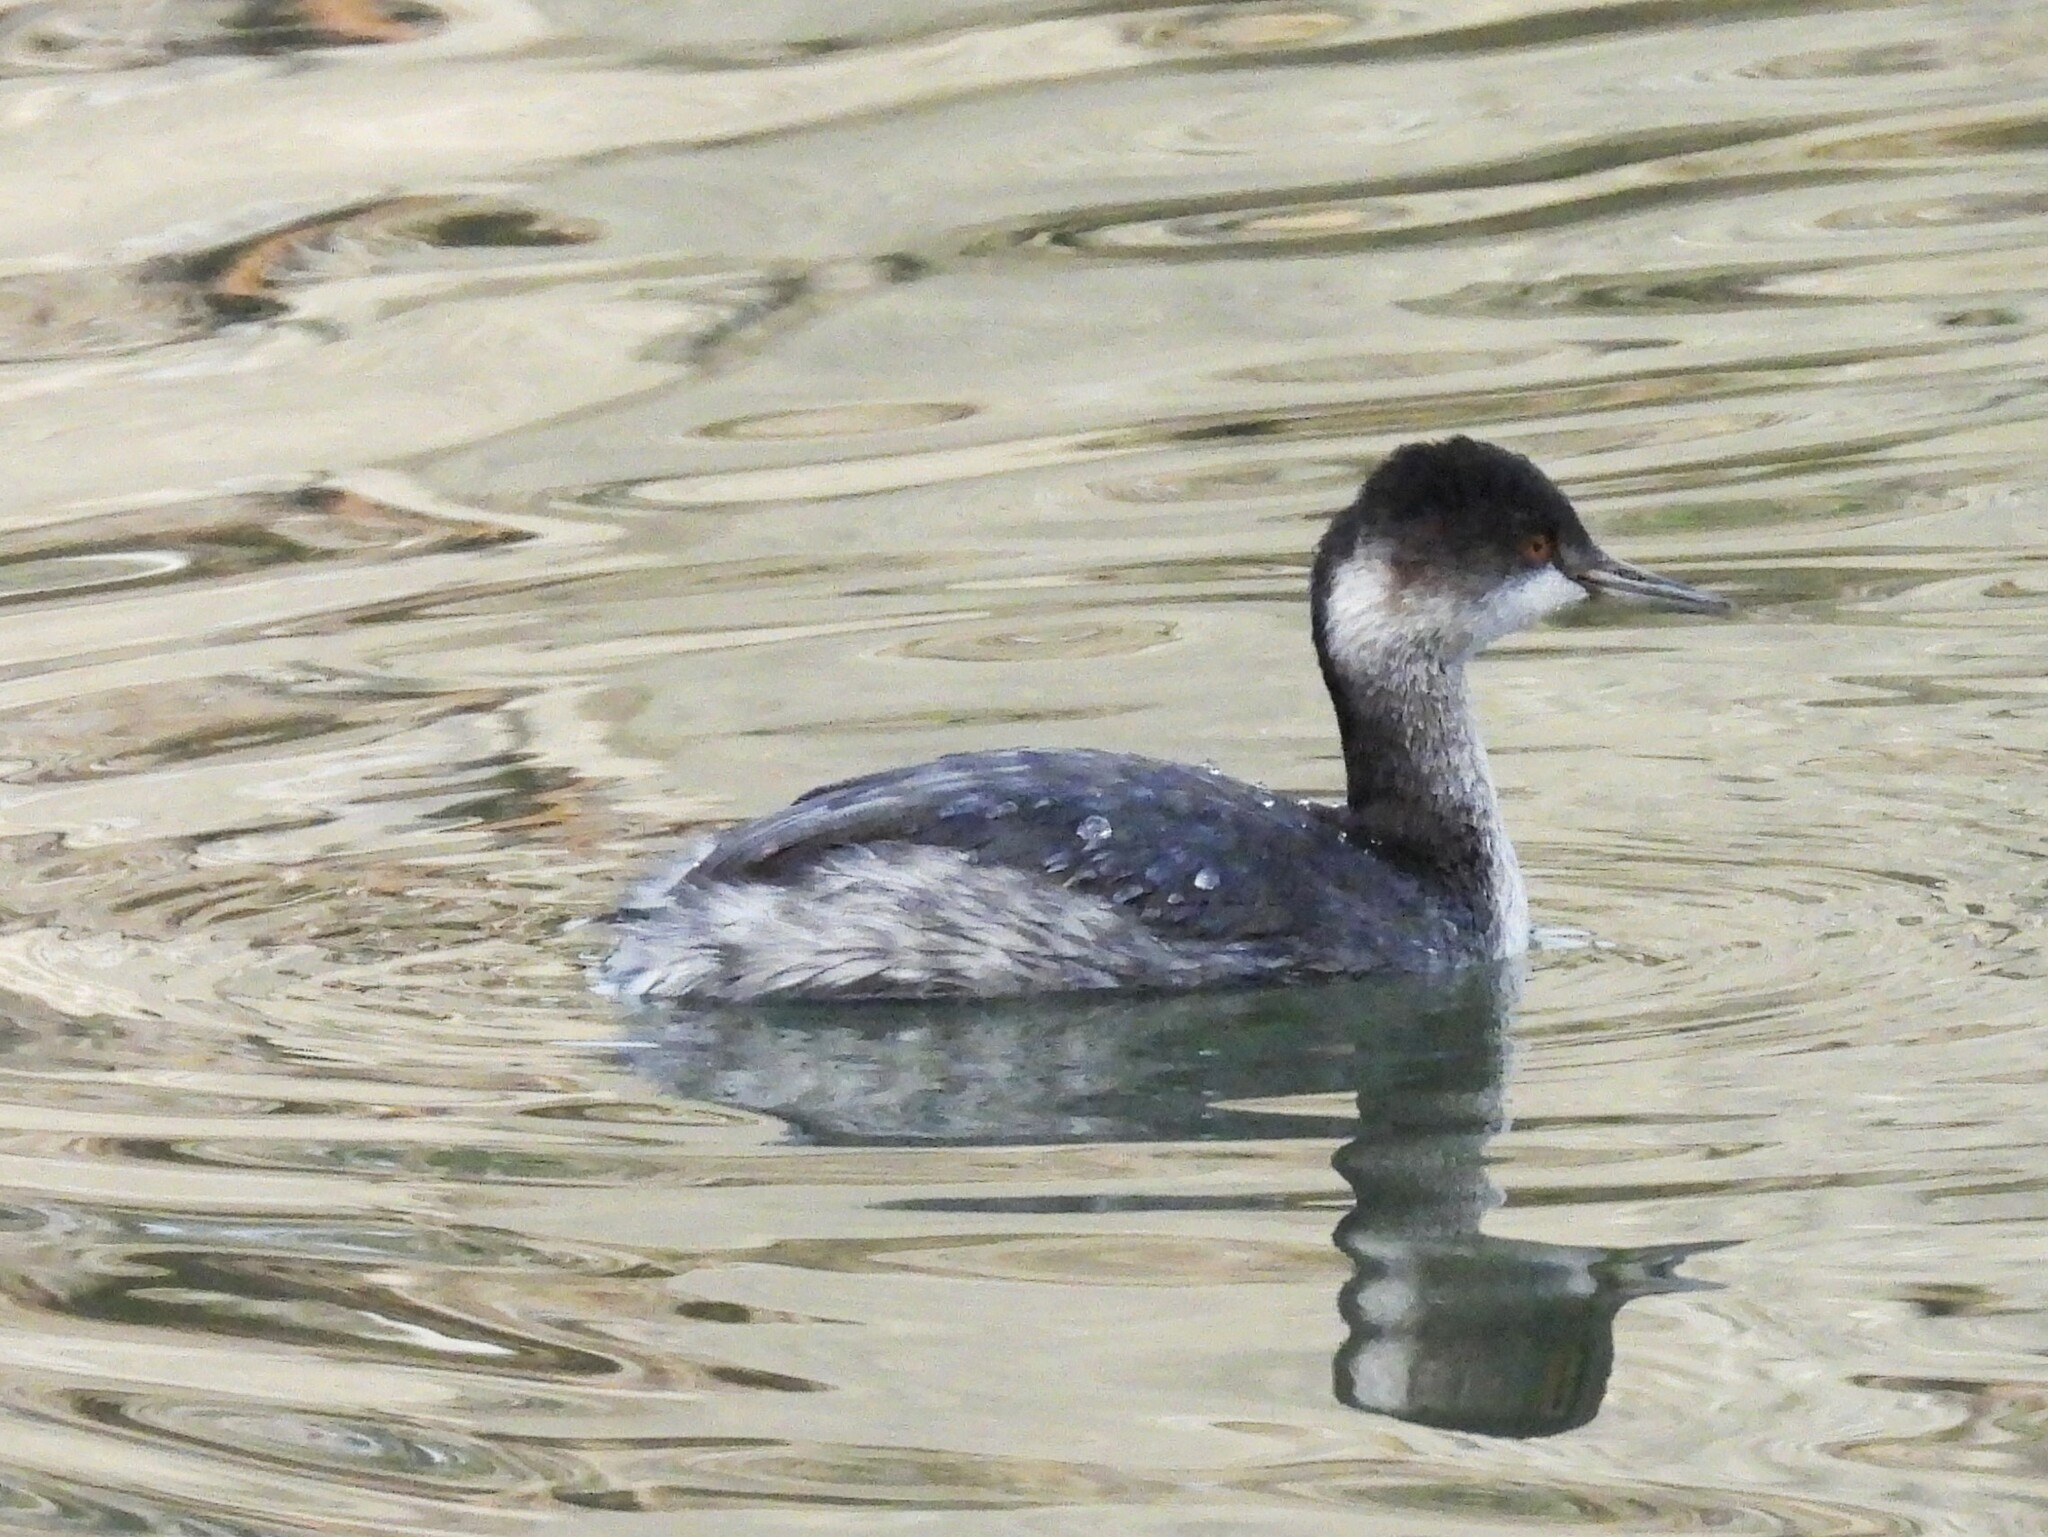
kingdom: Animalia
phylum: Chordata
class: Aves
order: Podicipediformes
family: Podicipedidae
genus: Podiceps
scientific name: Podiceps nigricollis
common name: Black-necked grebe
